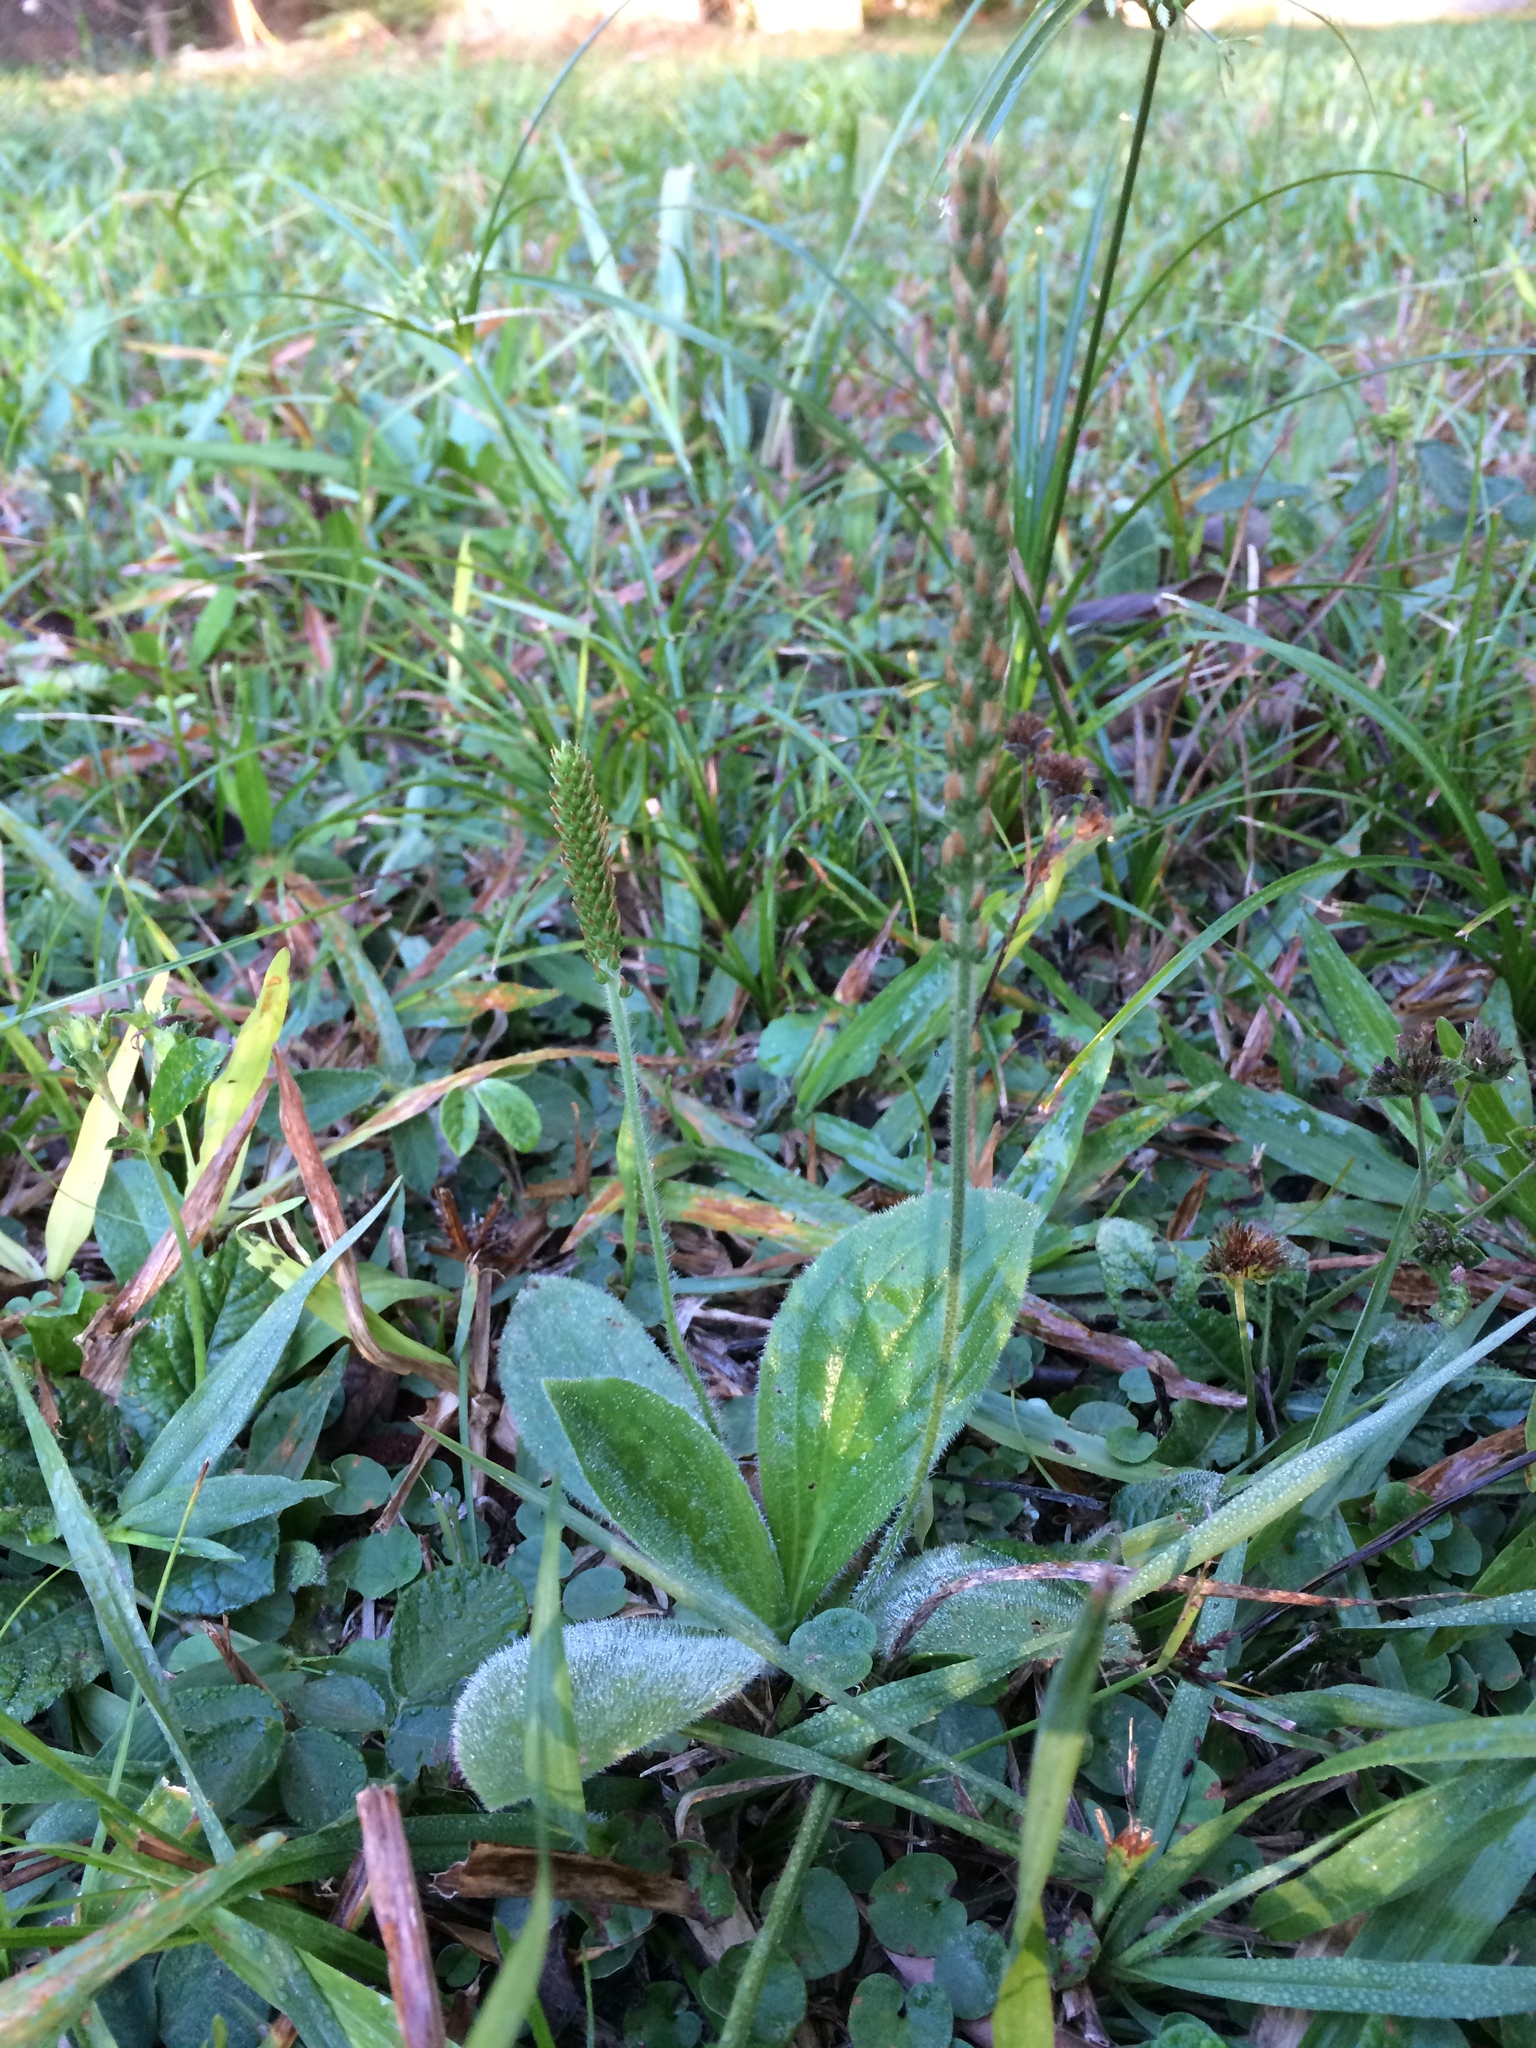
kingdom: Plantae
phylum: Tracheophyta
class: Magnoliopsida
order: Lamiales
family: Plantaginaceae
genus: Plantago
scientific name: Plantago australis
